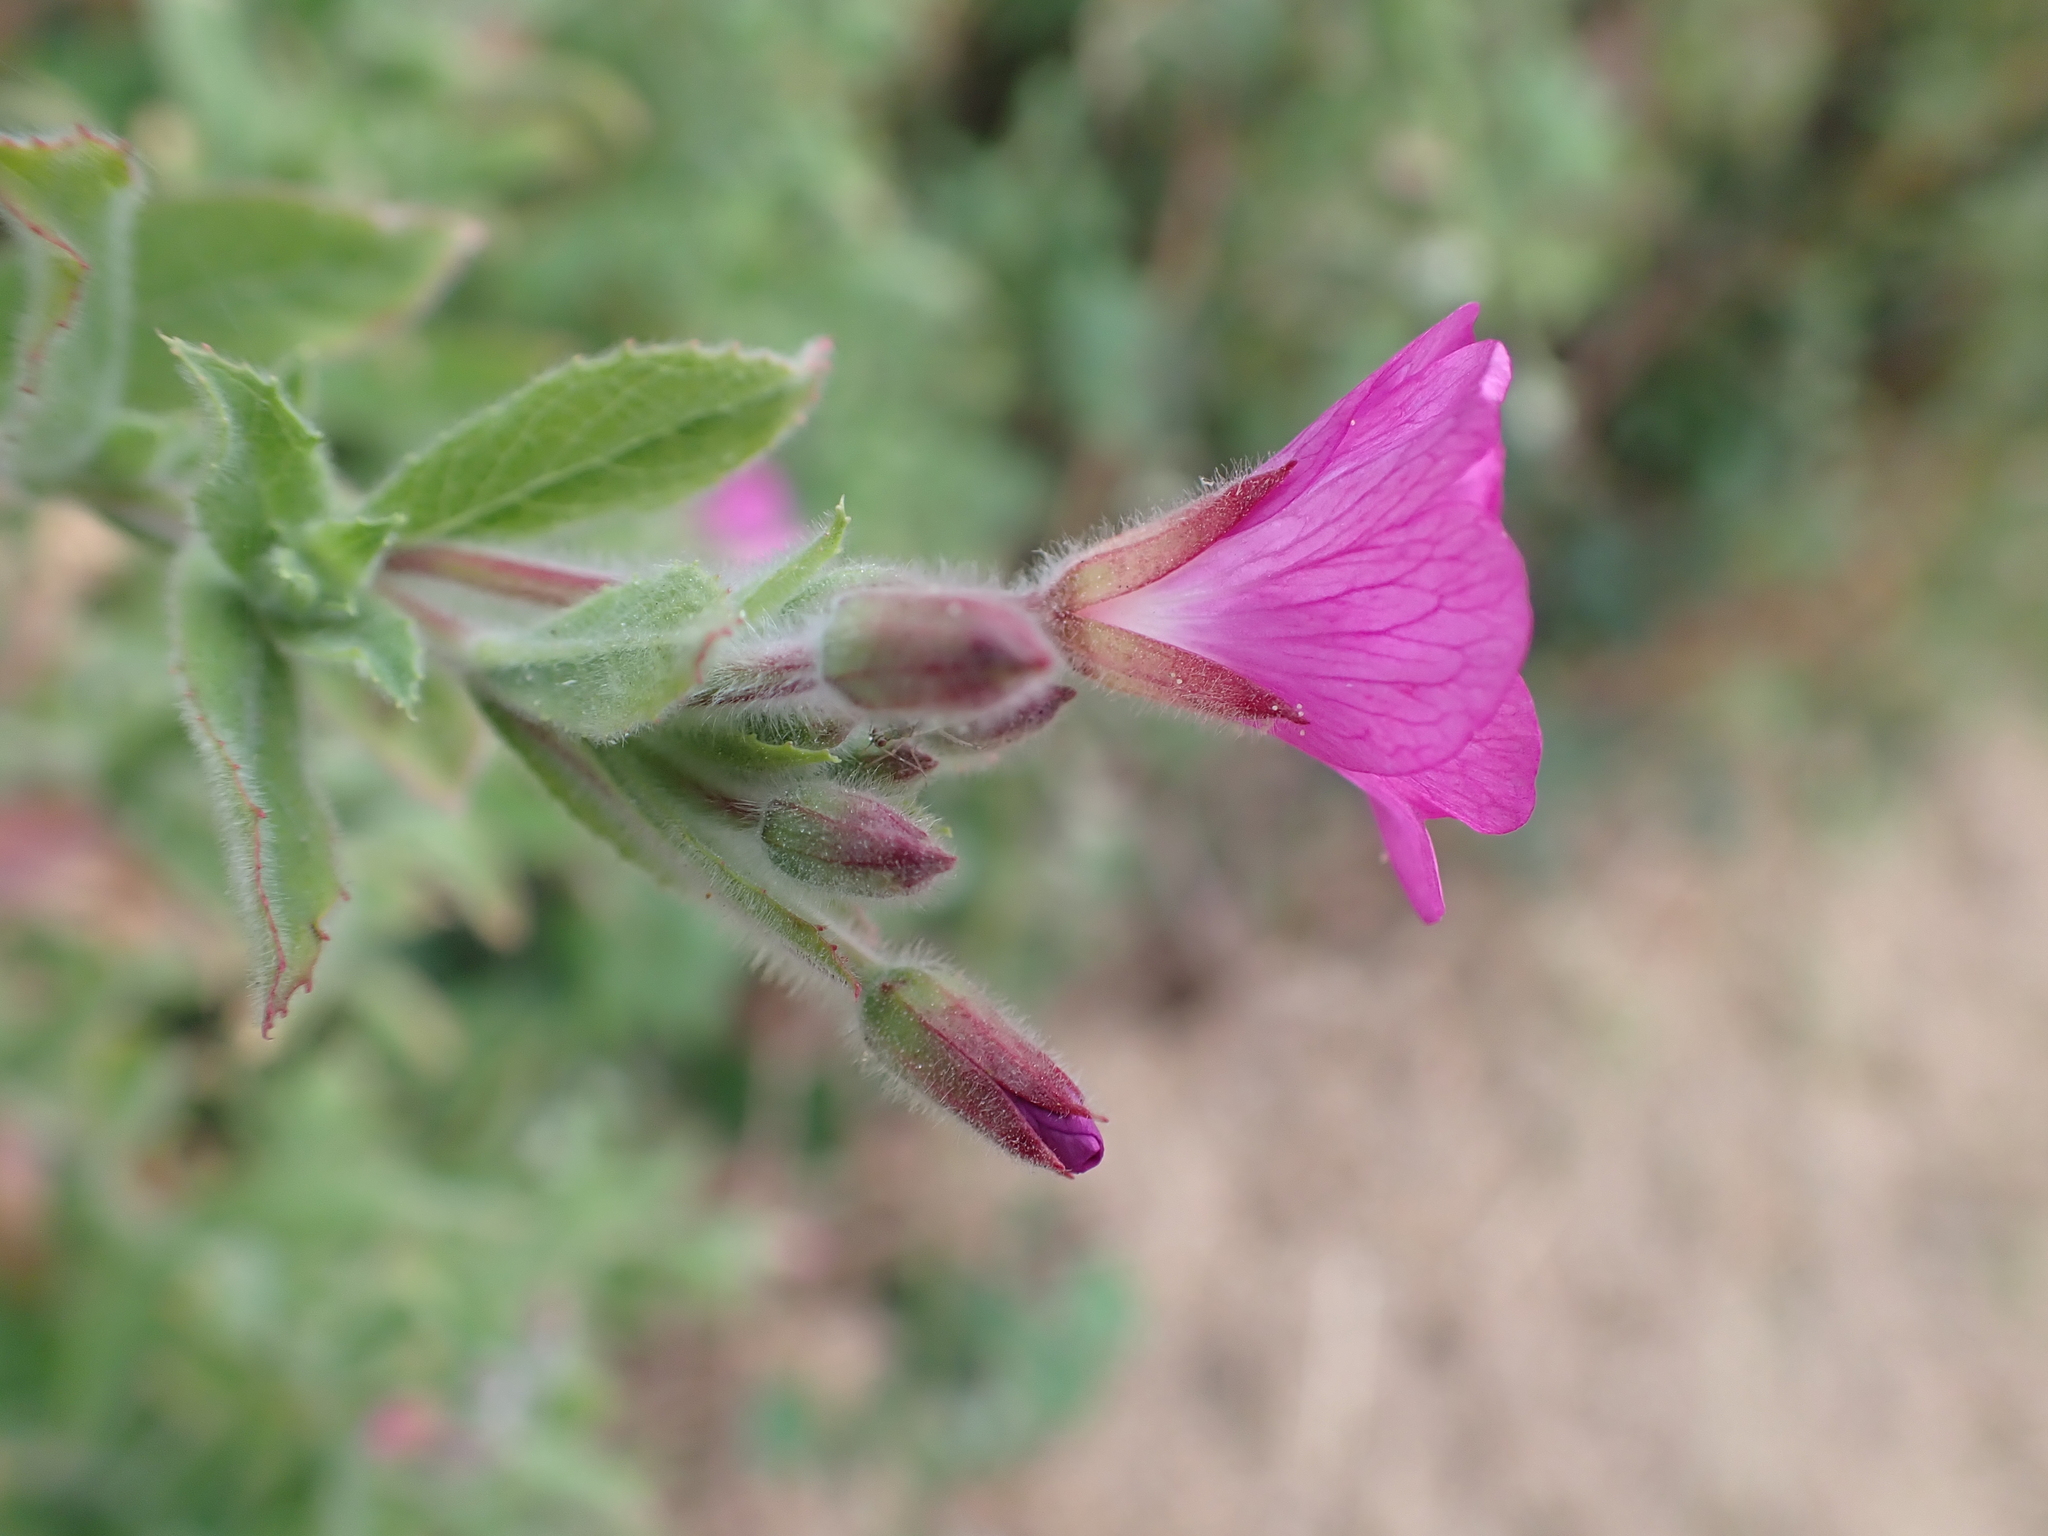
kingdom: Plantae
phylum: Tracheophyta
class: Magnoliopsida
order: Myrtales
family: Onagraceae
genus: Epilobium
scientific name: Epilobium hirsutum
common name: Great willowherb
